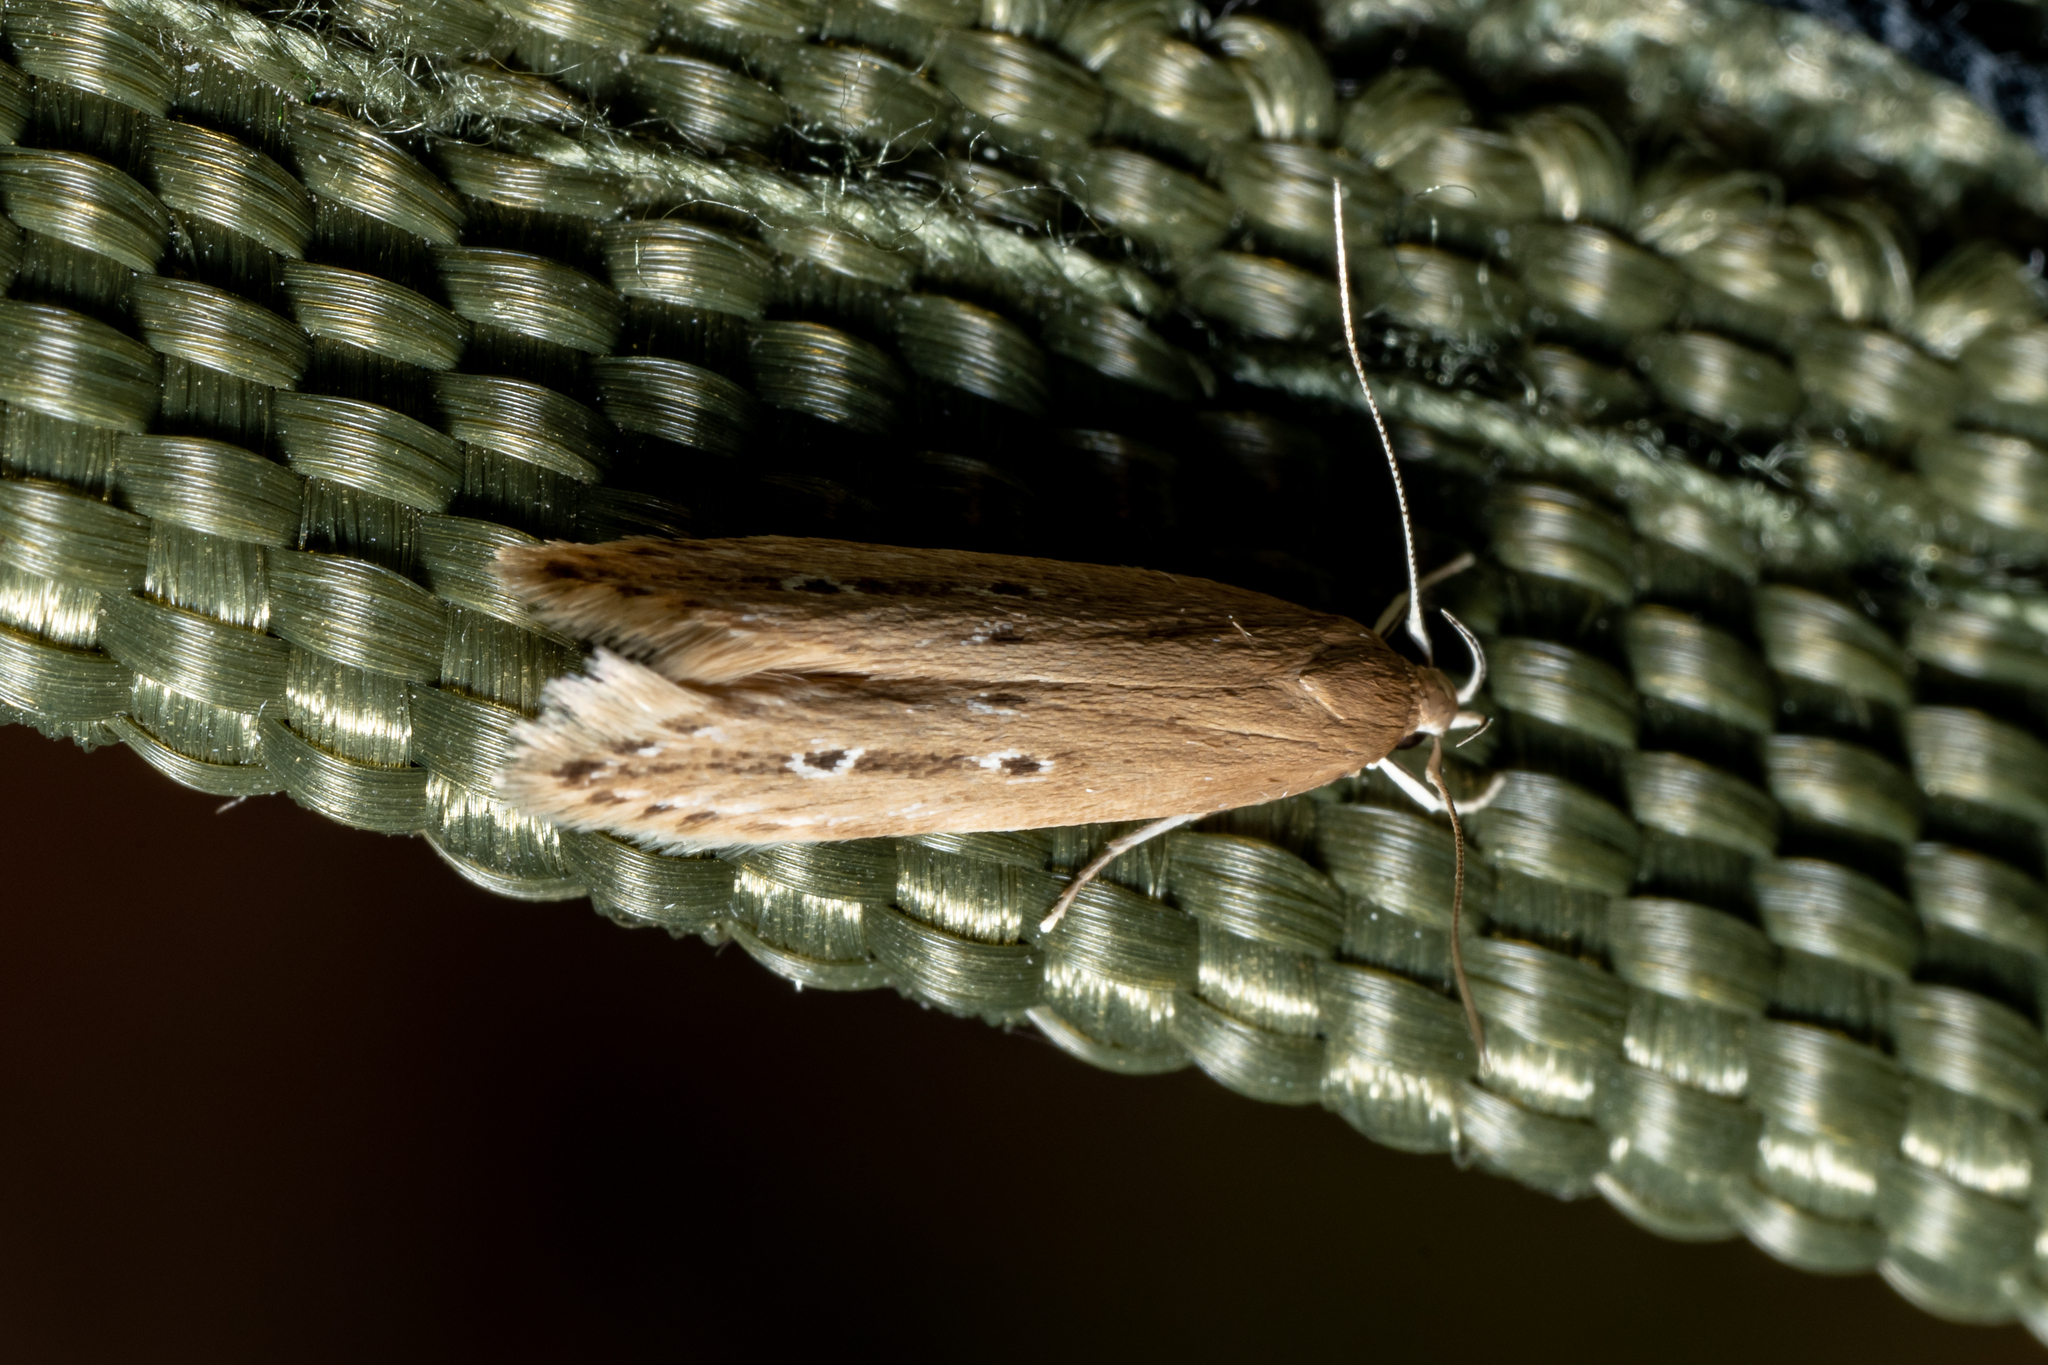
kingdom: Animalia
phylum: Arthropoda
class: Insecta
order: Lepidoptera
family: Cosmopterigidae
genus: Limnaecia
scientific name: Limnaecia phragmitella
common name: Bulrush cosmet
